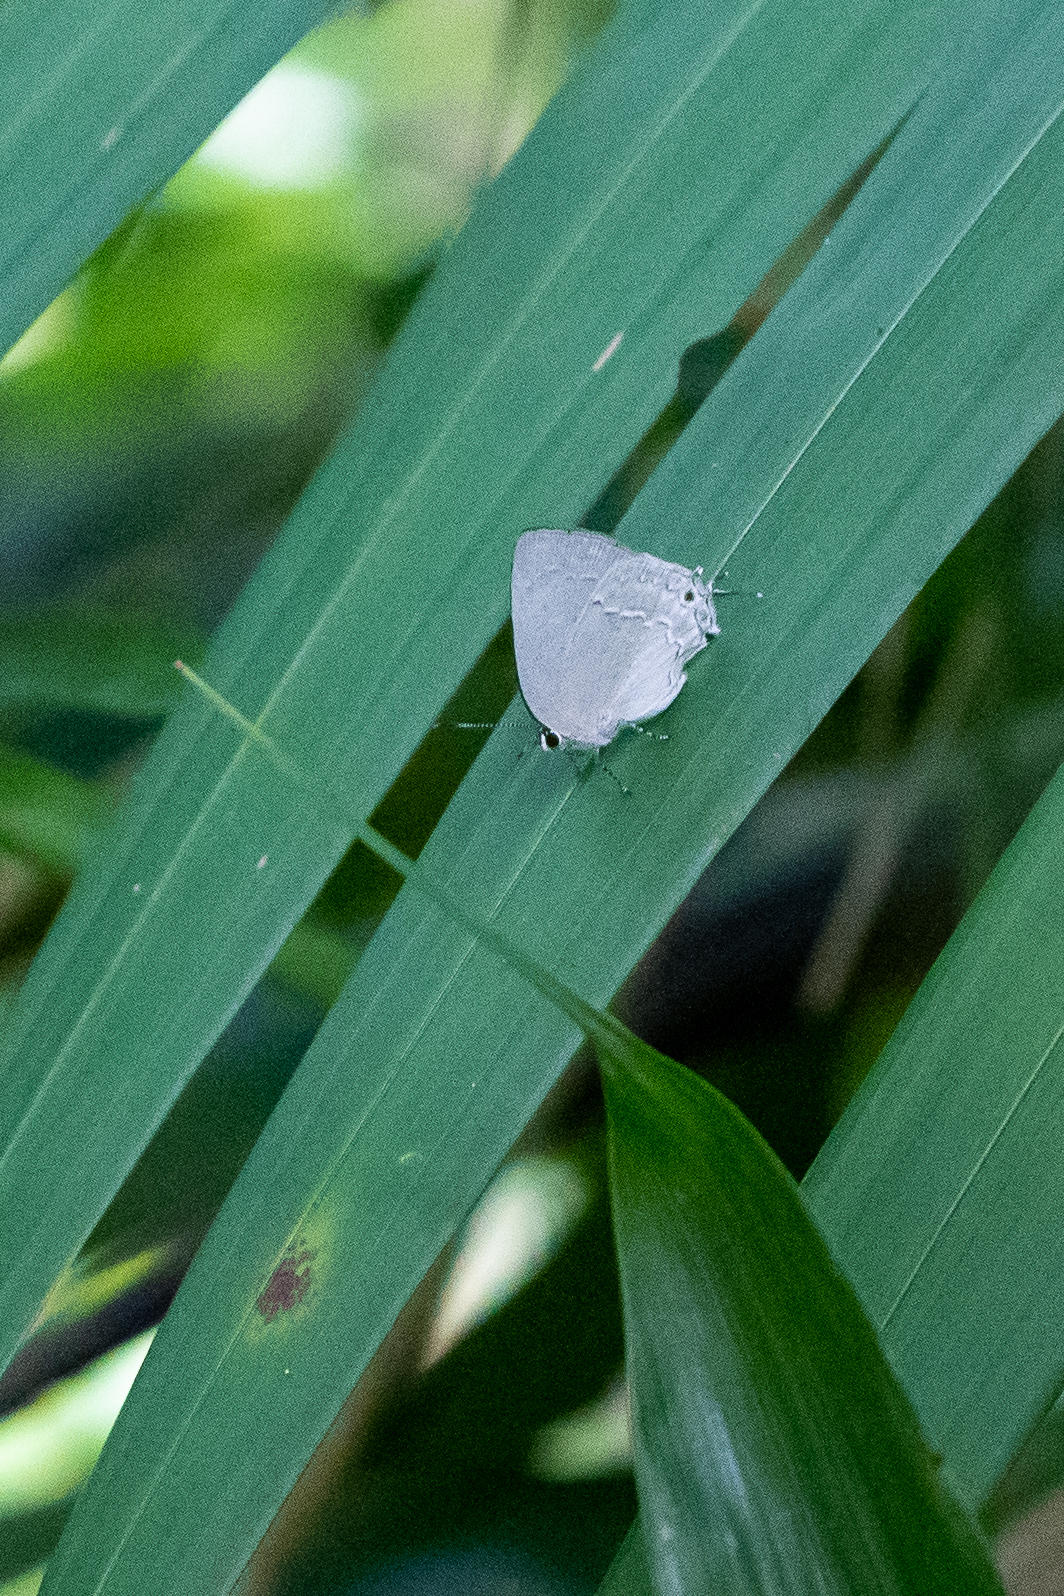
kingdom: Animalia
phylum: Arthropoda
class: Insecta
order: Lepidoptera
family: Lycaenidae
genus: Rapala
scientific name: Rapala sphinx
